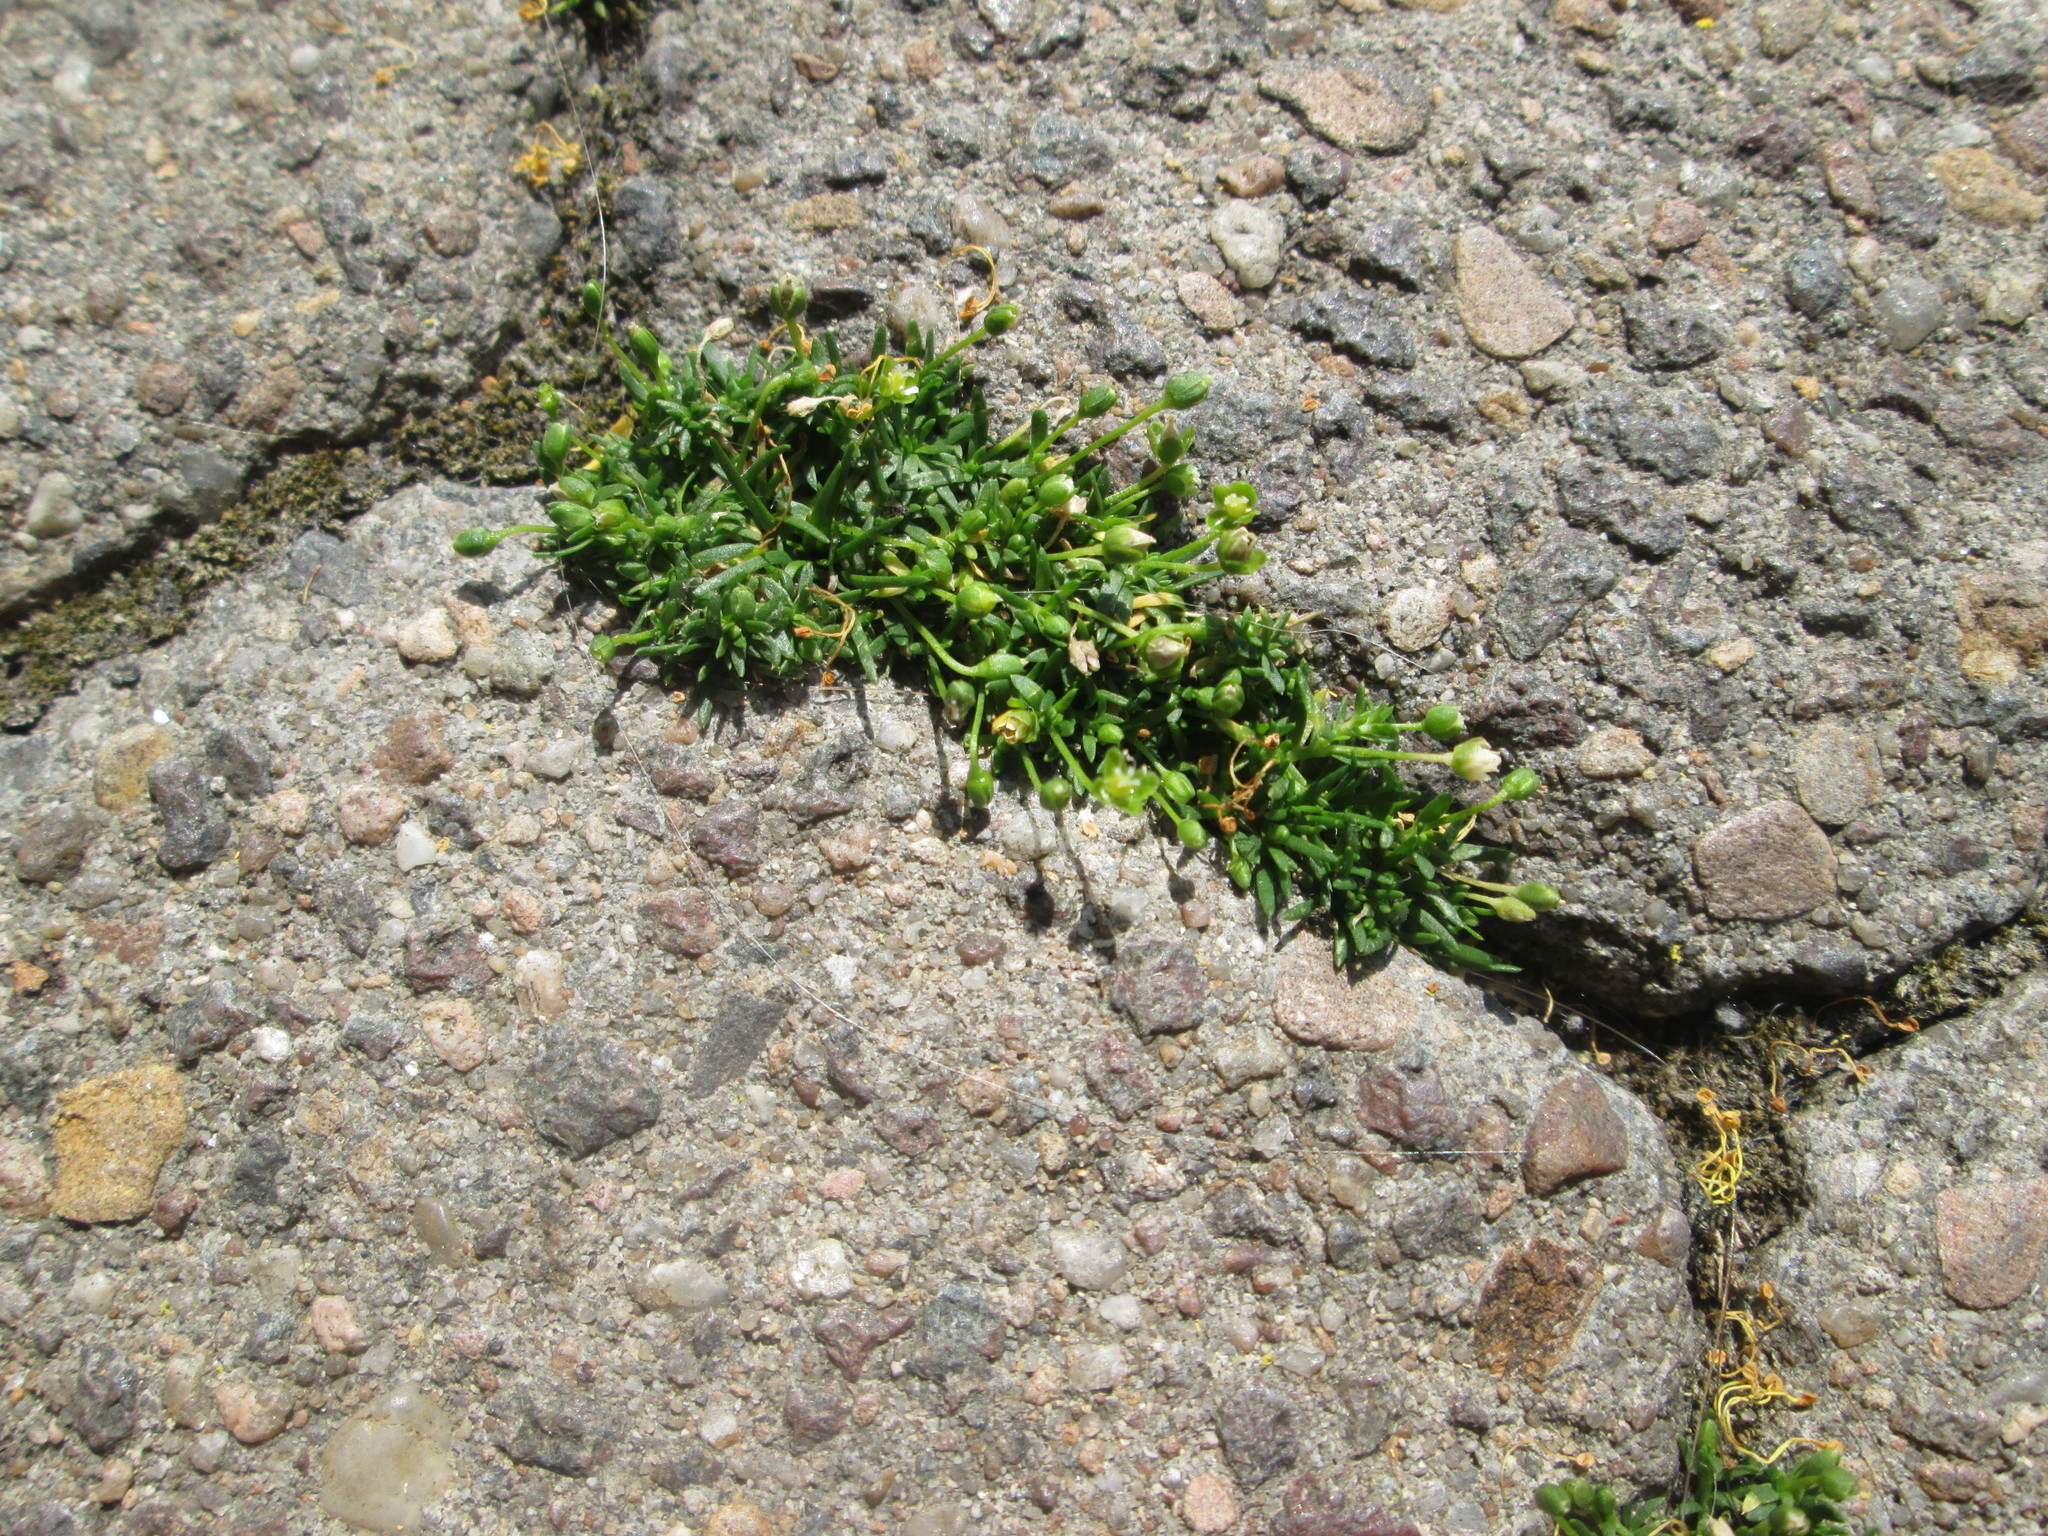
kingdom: Plantae
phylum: Tracheophyta
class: Magnoliopsida
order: Caryophyllales
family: Caryophyllaceae
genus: Sagina
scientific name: Sagina procumbens
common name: Procumbent pearlwort
